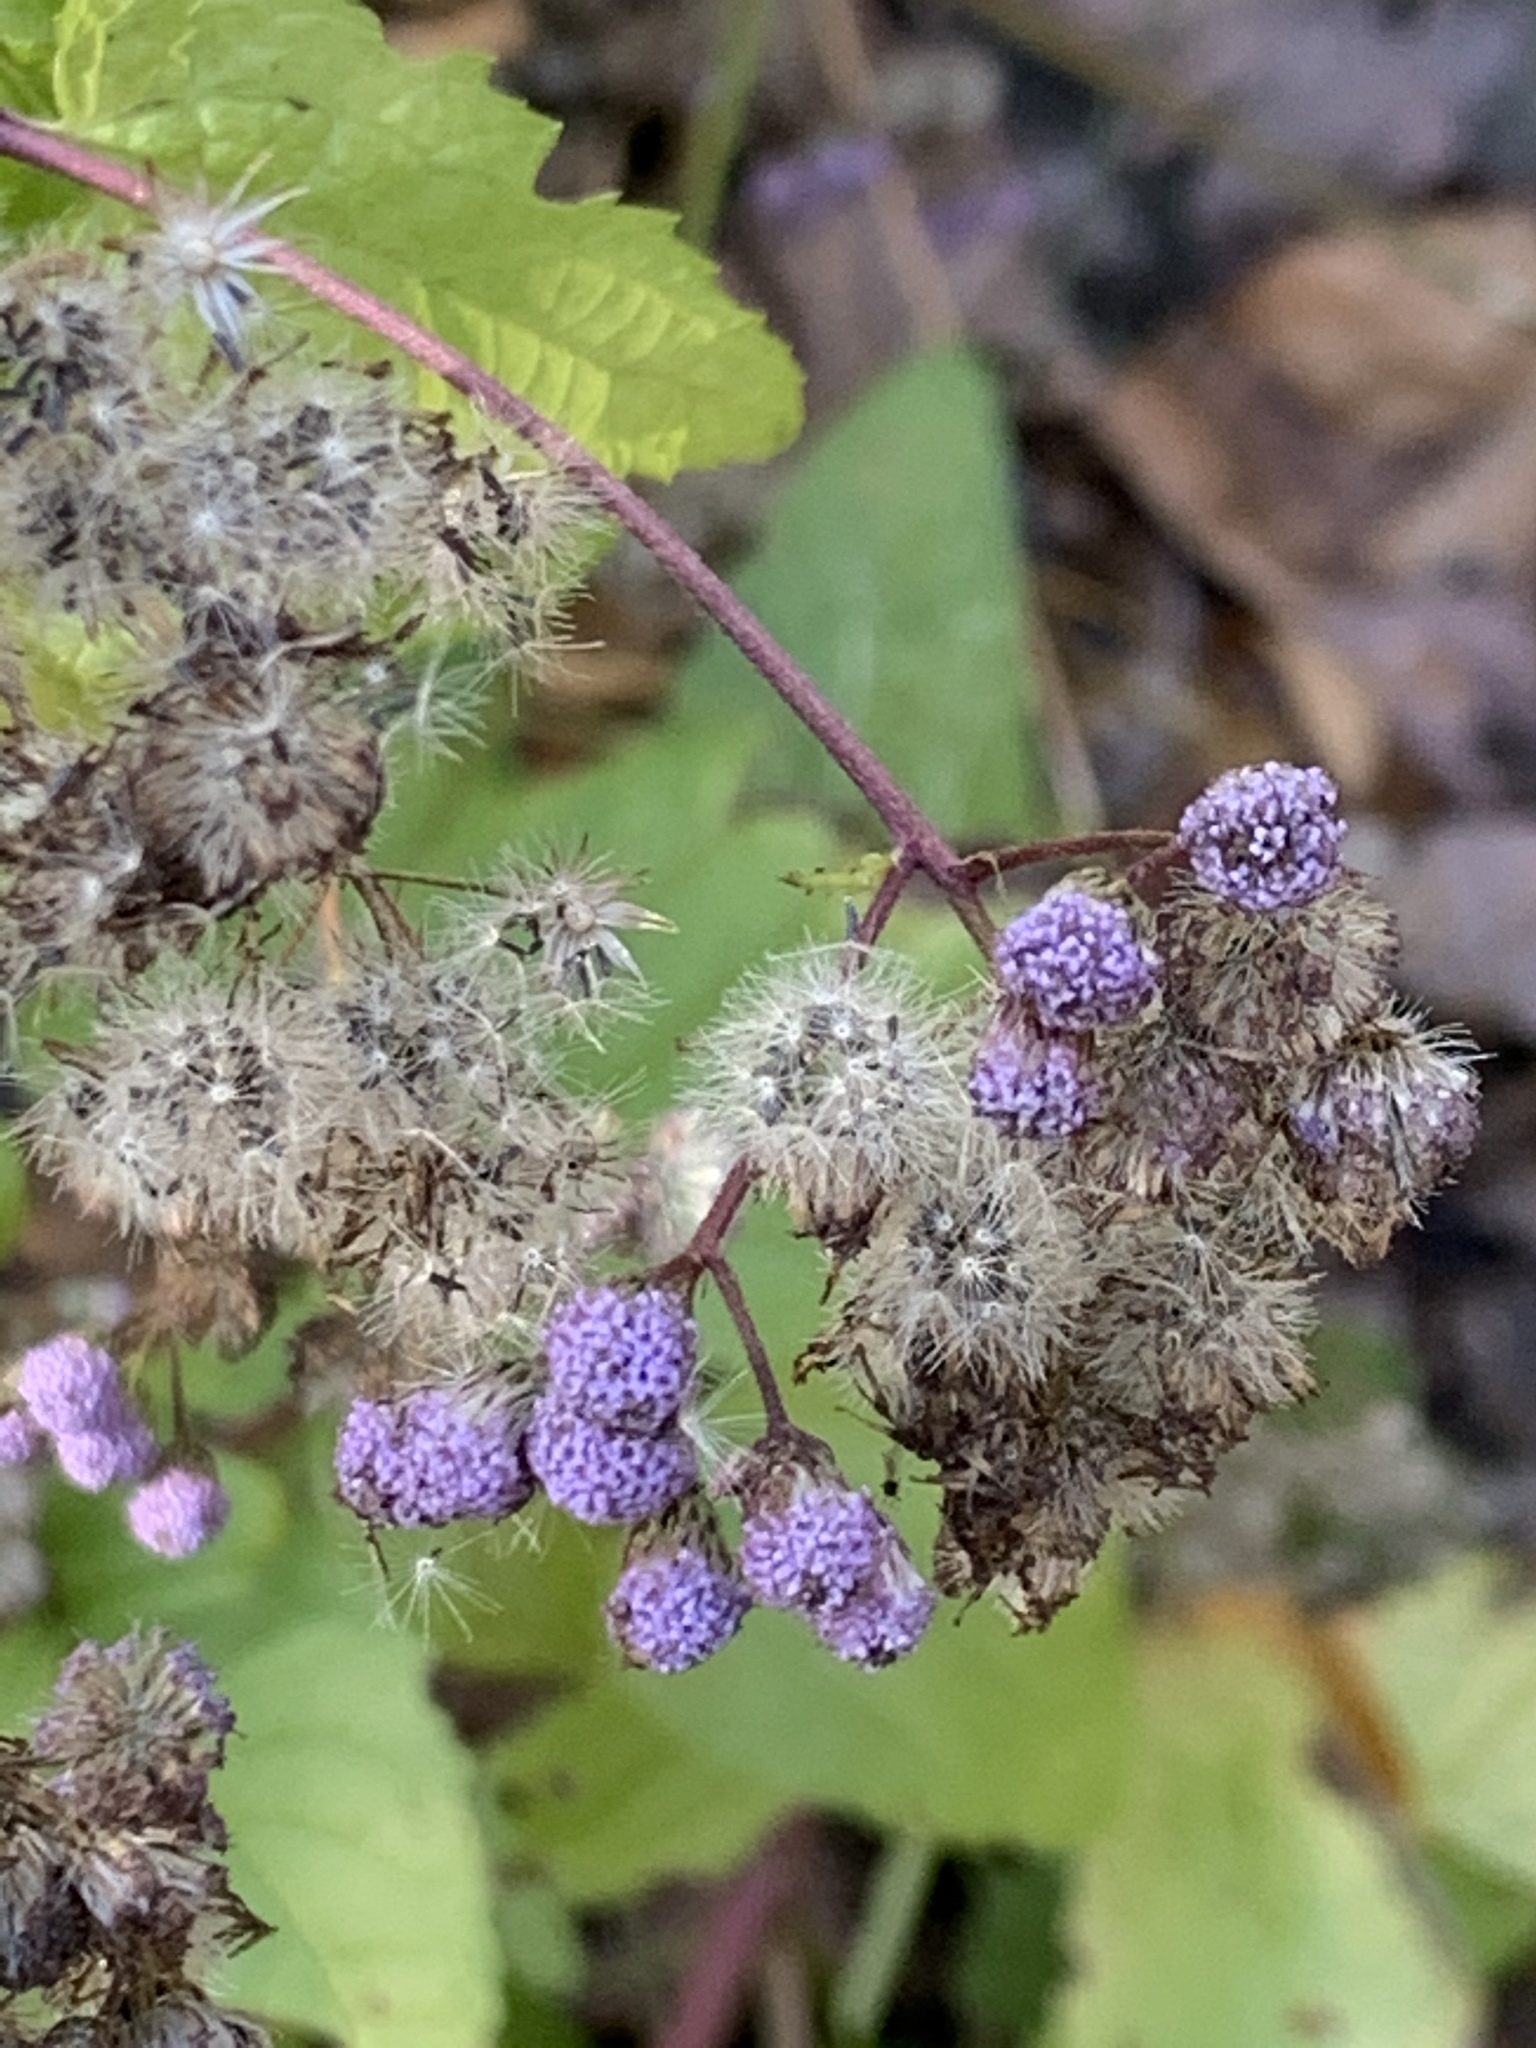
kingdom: Plantae
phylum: Tracheophyta
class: Magnoliopsida
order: Asterales
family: Asteraceae
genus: Conoclinium
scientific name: Conoclinium coelestinum
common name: Blue mistflower
